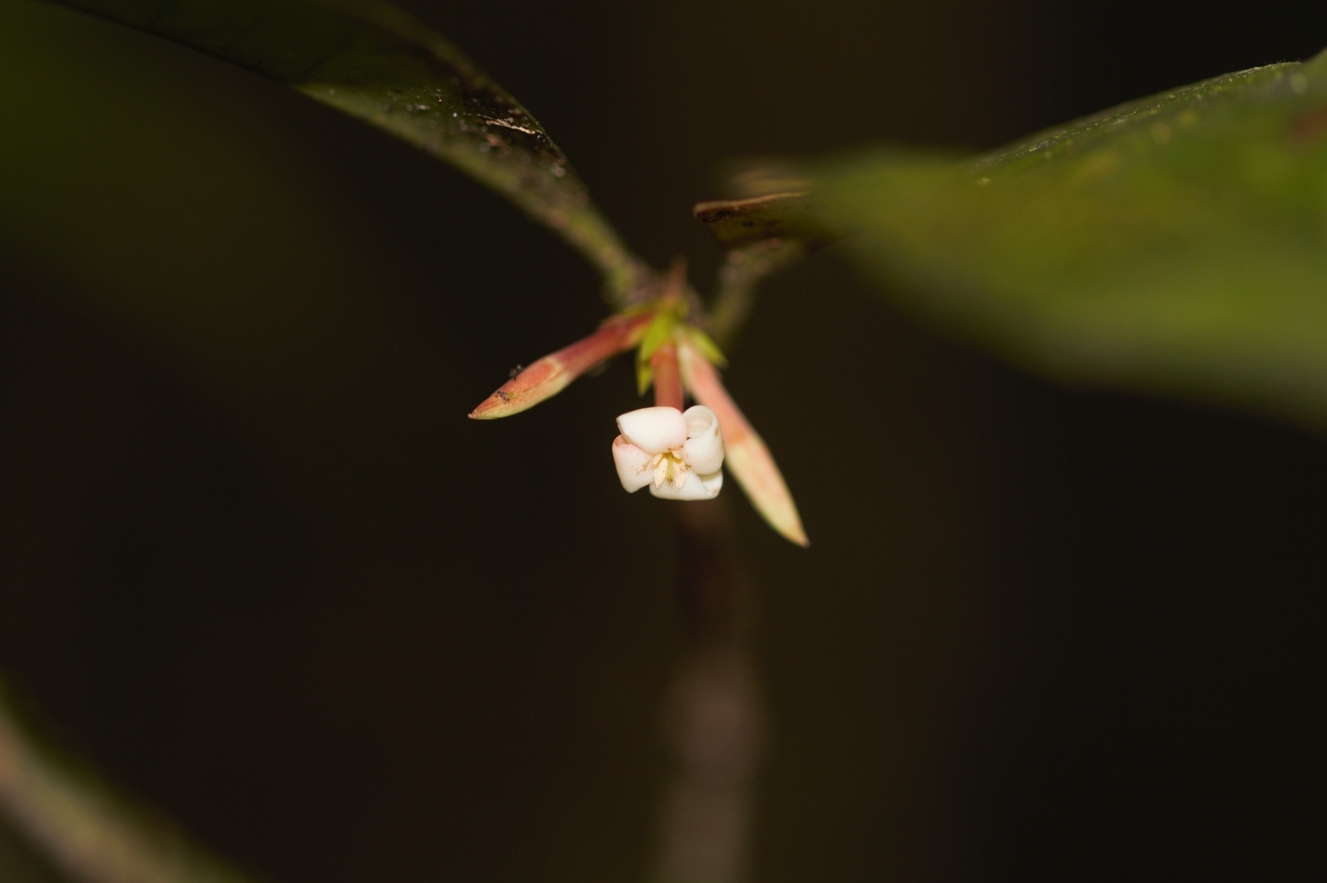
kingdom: Plantae
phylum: Tracheophyta
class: Magnoliopsida
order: Gentianales
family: Rubiaceae
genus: Ixora
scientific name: Ixora aluminicola
